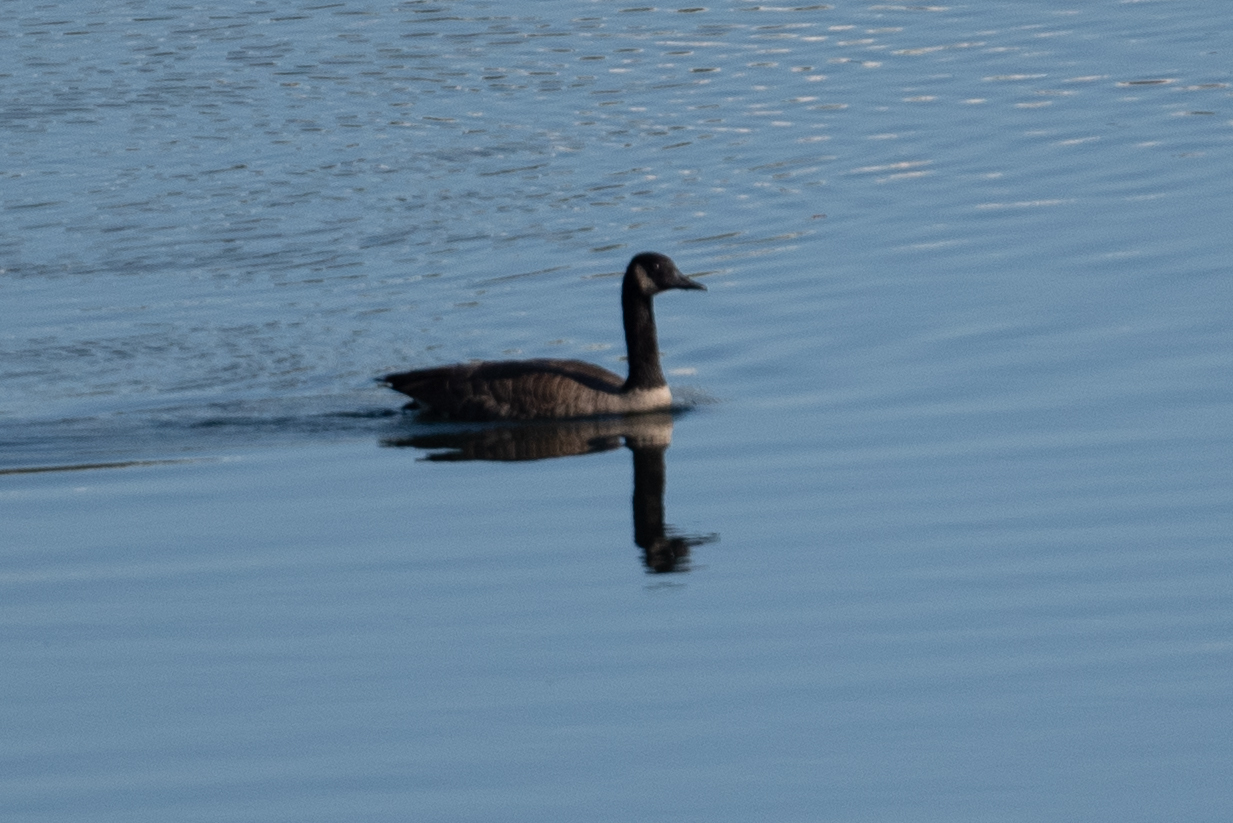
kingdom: Animalia
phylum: Chordata
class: Aves
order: Anseriformes
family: Anatidae
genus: Branta
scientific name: Branta canadensis
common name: Canada goose
